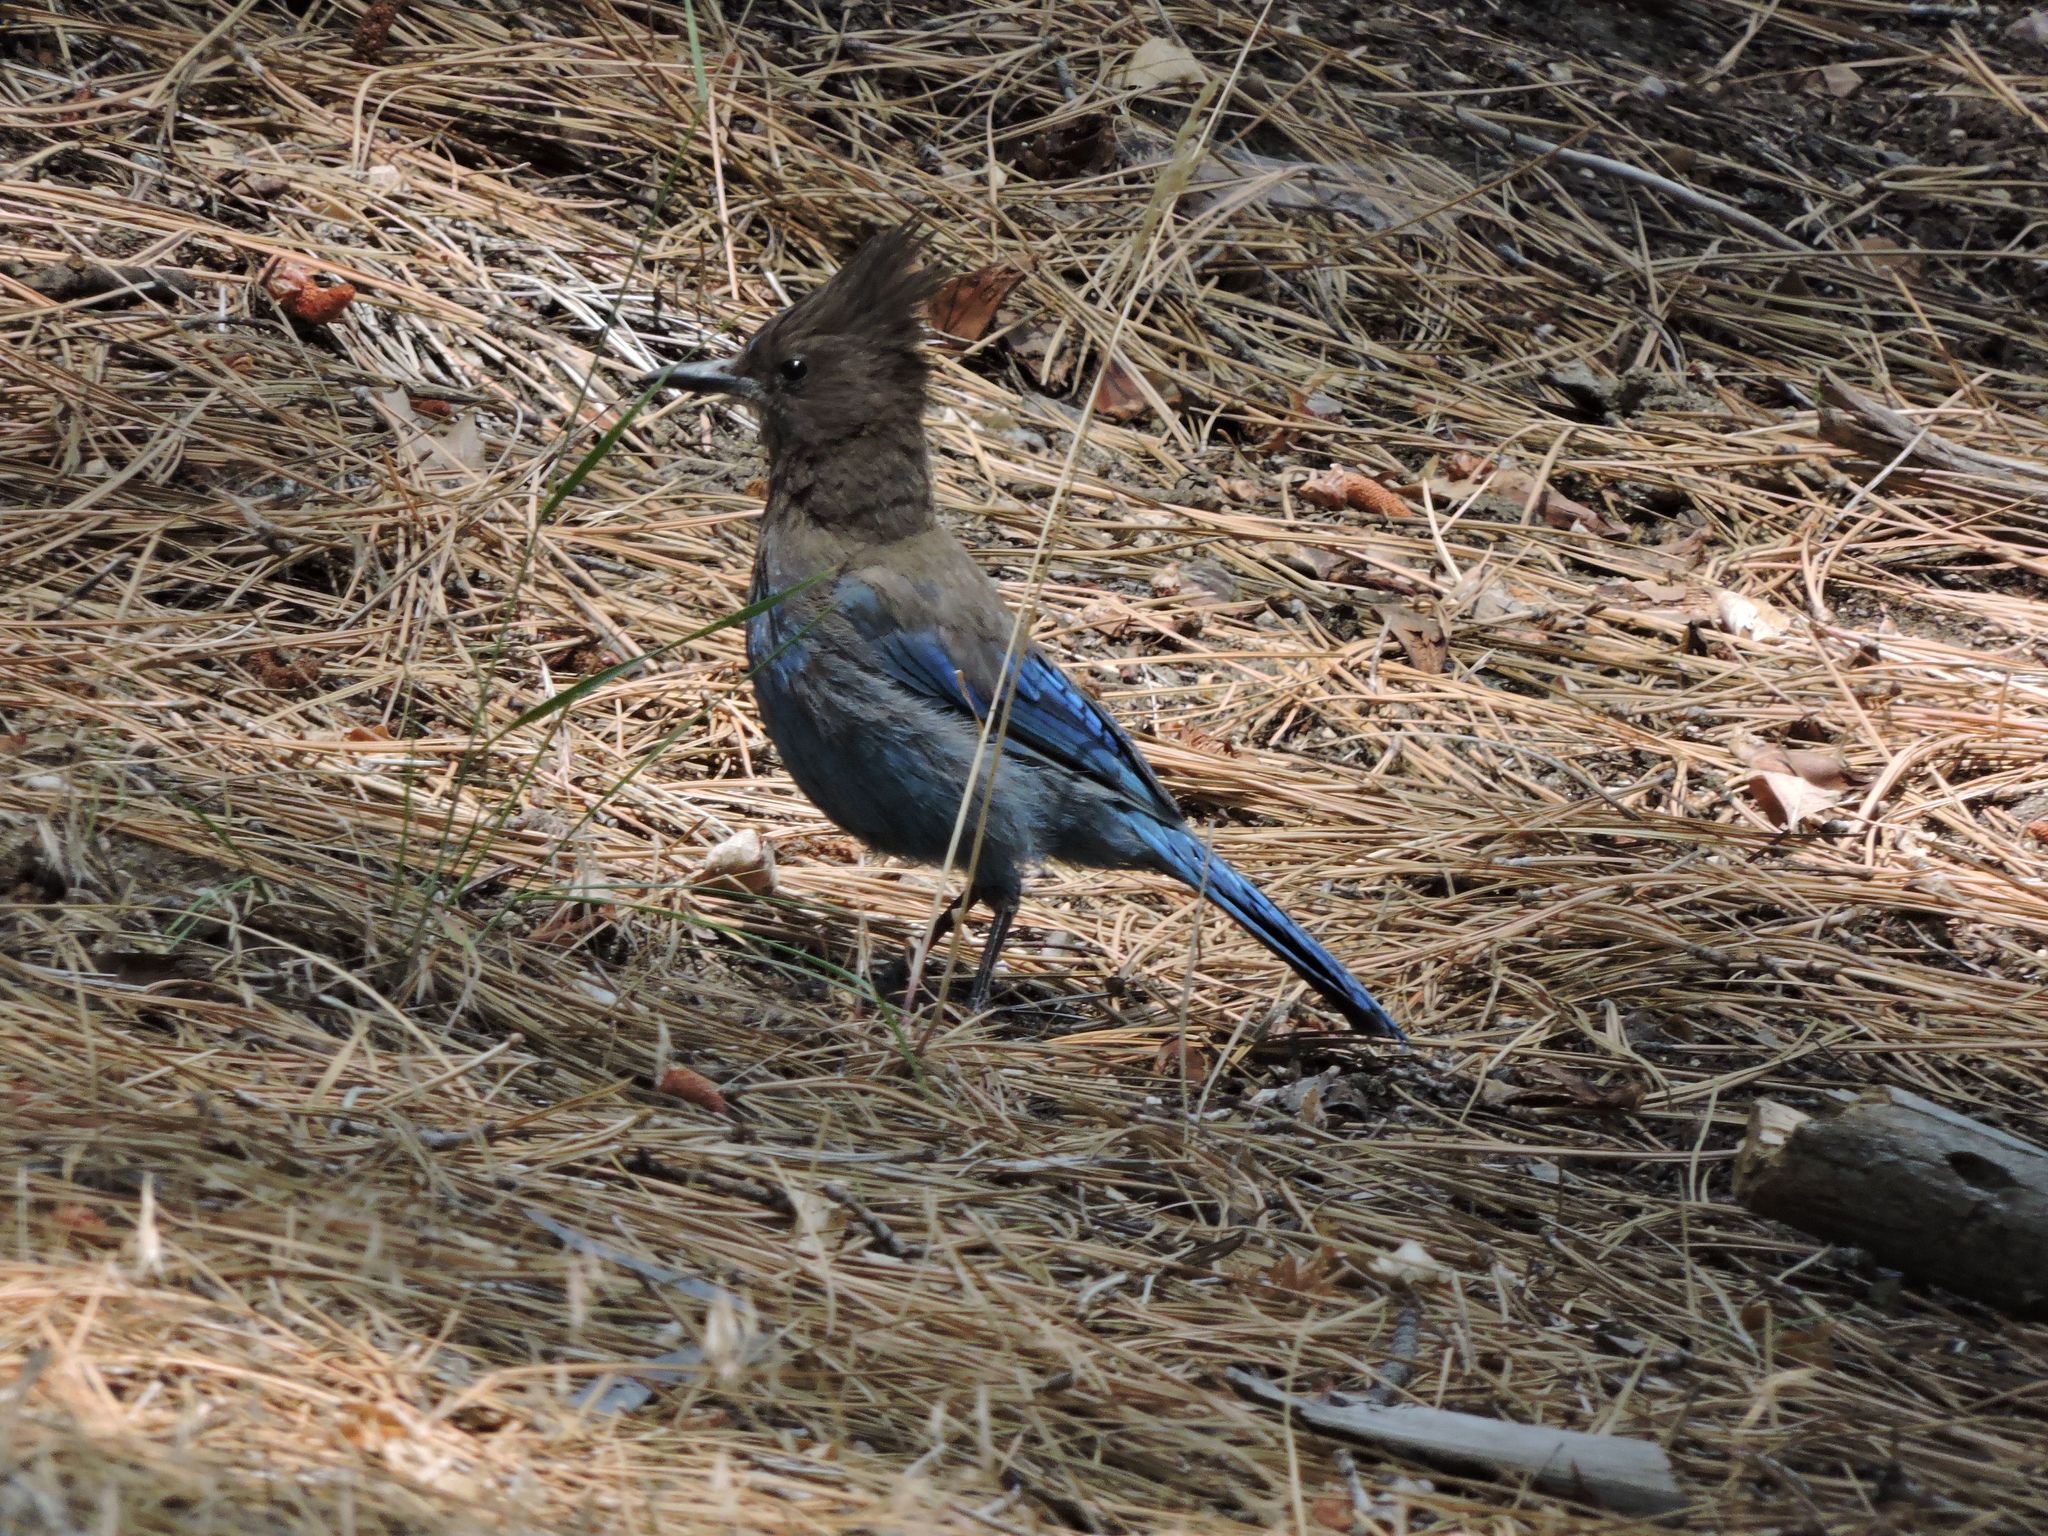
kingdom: Animalia
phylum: Chordata
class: Aves
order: Passeriformes
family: Corvidae
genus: Cyanocitta
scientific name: Cyanocitta stelleri
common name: Steller's jay
